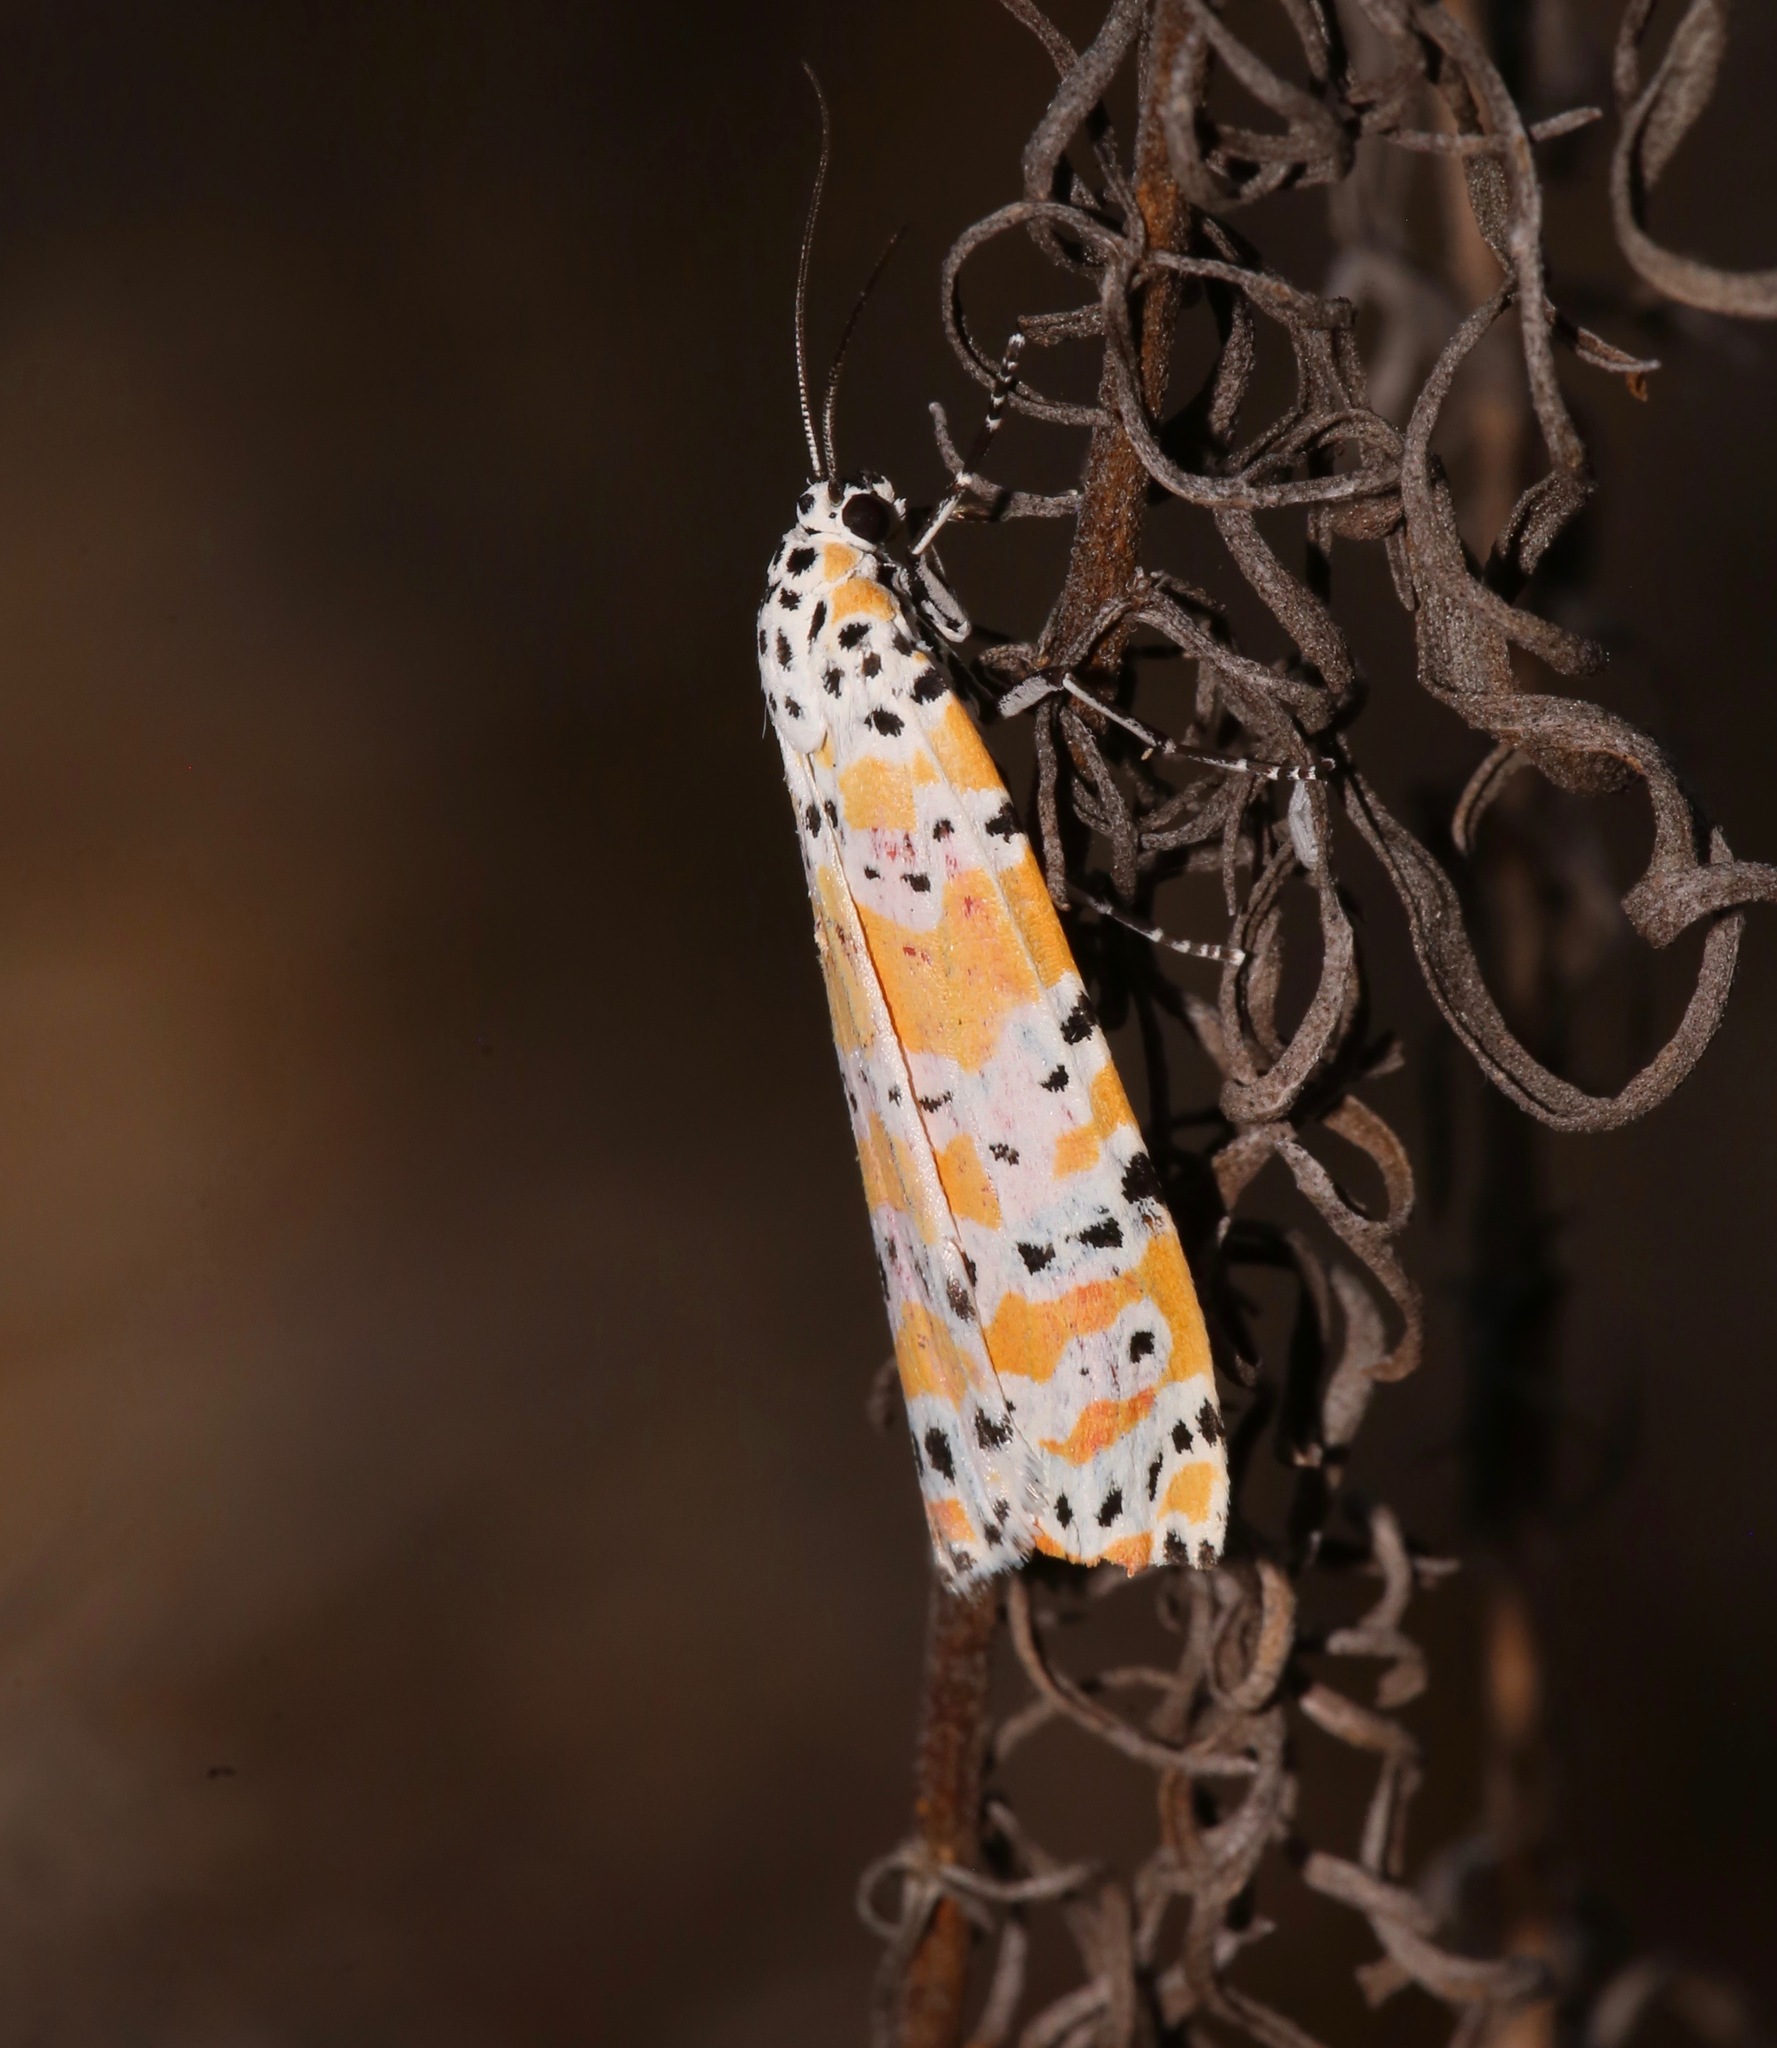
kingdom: Animalia
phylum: Arthropoda
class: Insecta
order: Lepidoptera
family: Erebidae
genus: Utetheisa
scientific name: Utetheisa ornatrix
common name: Beautiful utetheisa
